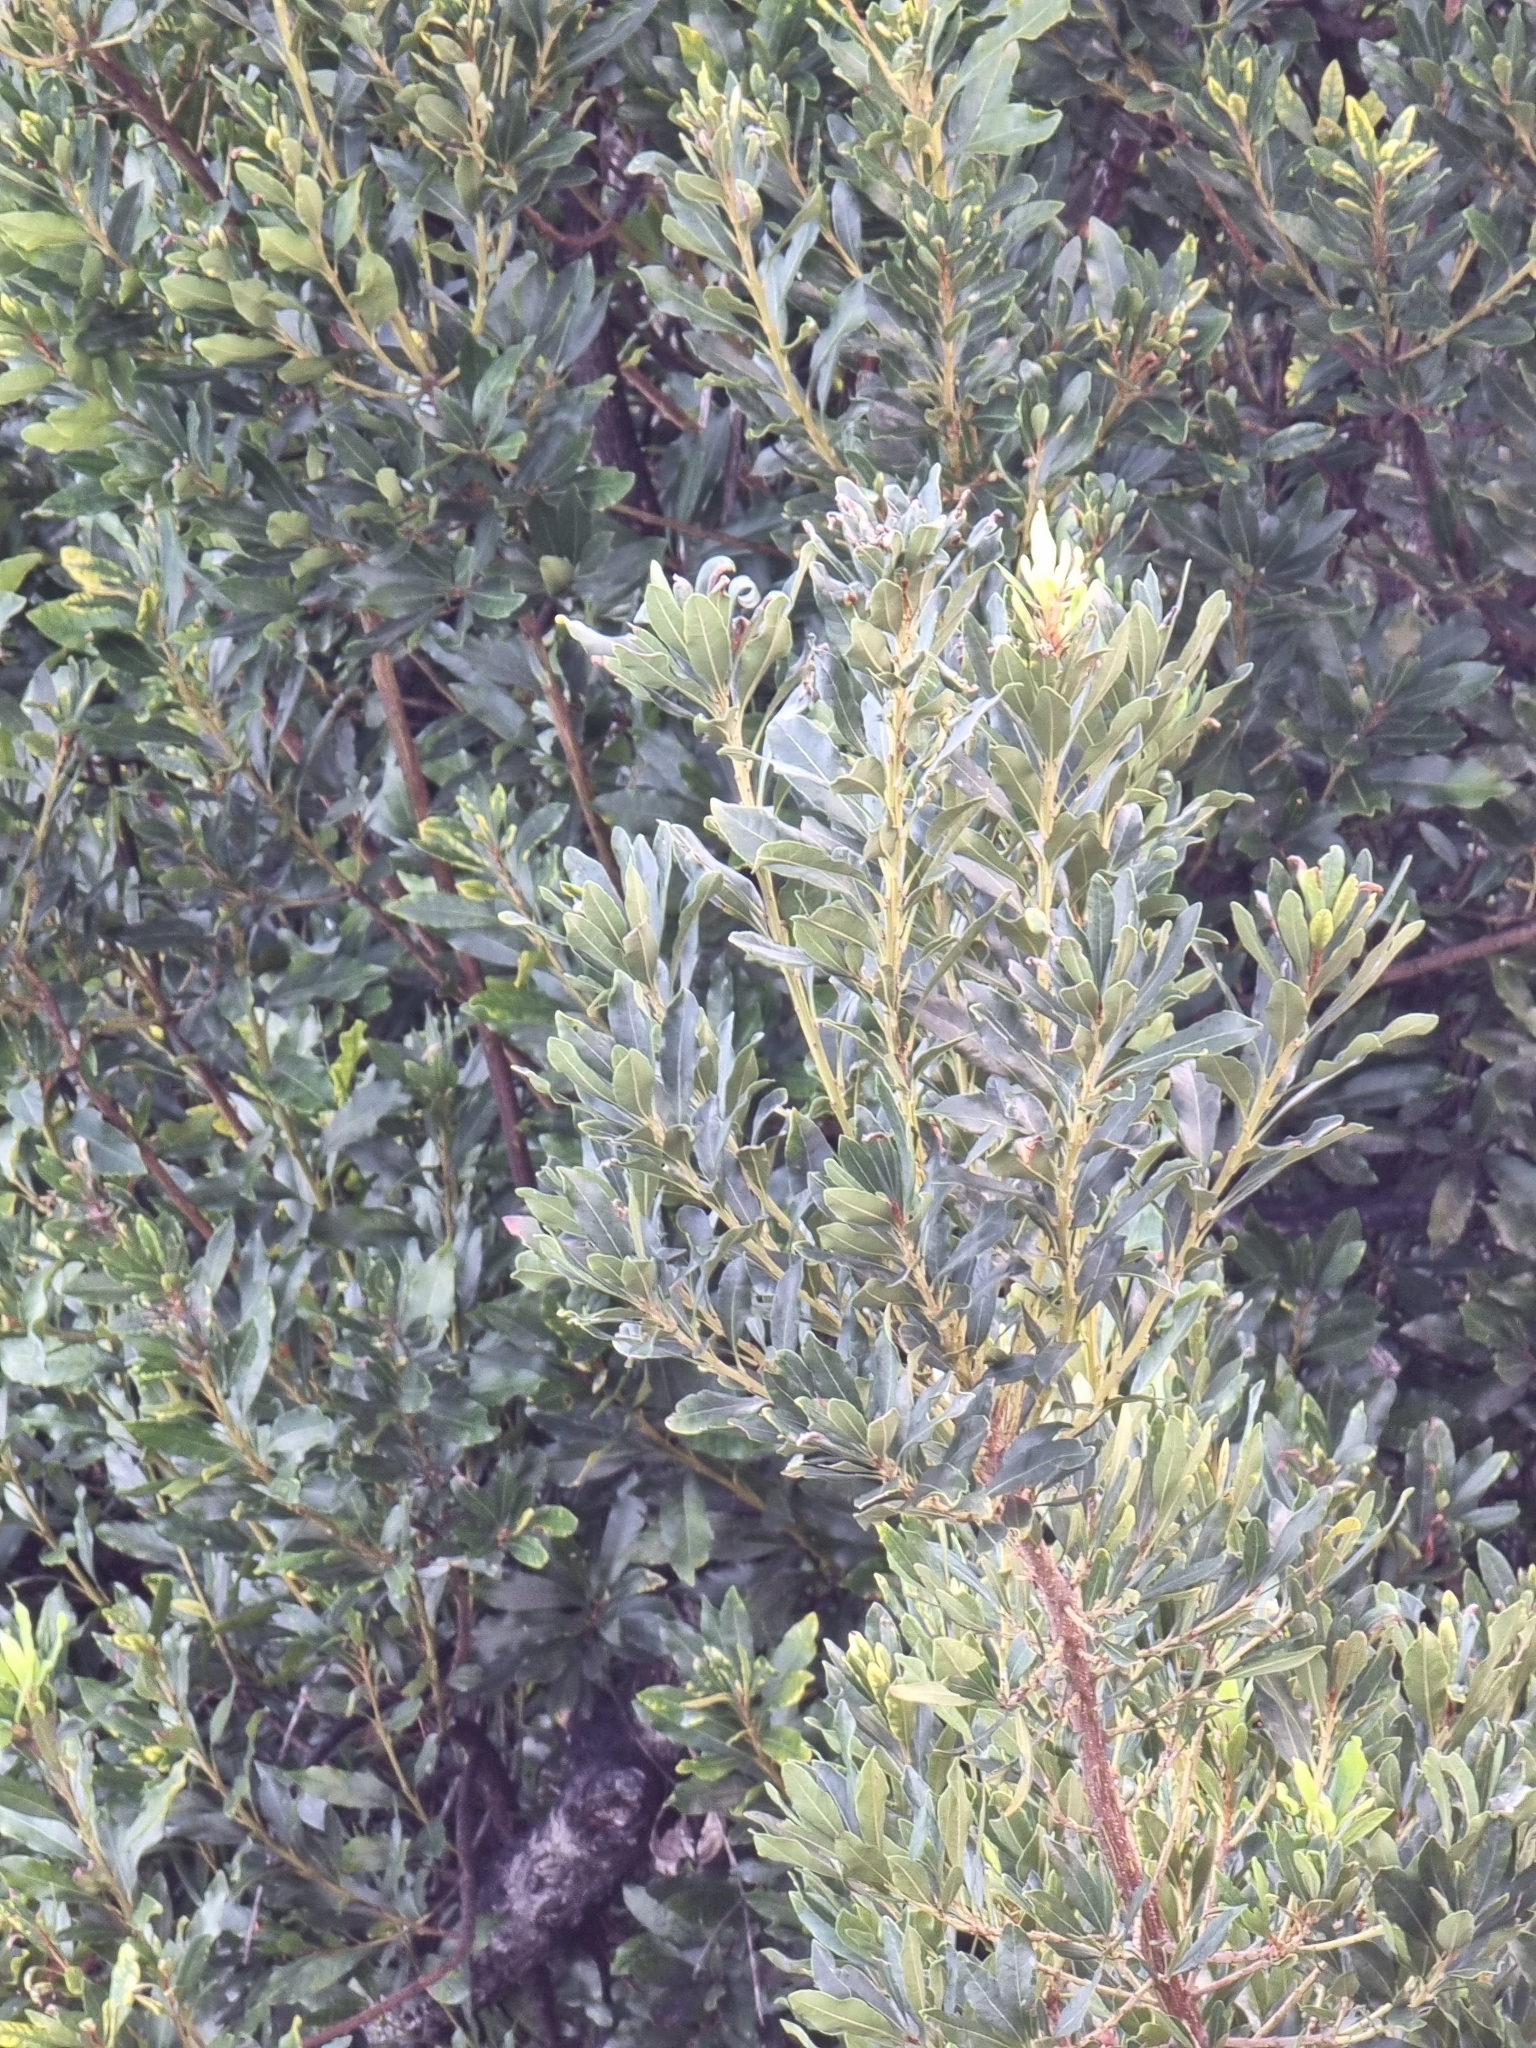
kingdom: Plantae
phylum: Tracheophyta
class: Magnoliopsida
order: Fagales
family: Myricaceae
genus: Morella
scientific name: Morella faya
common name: Firetree
